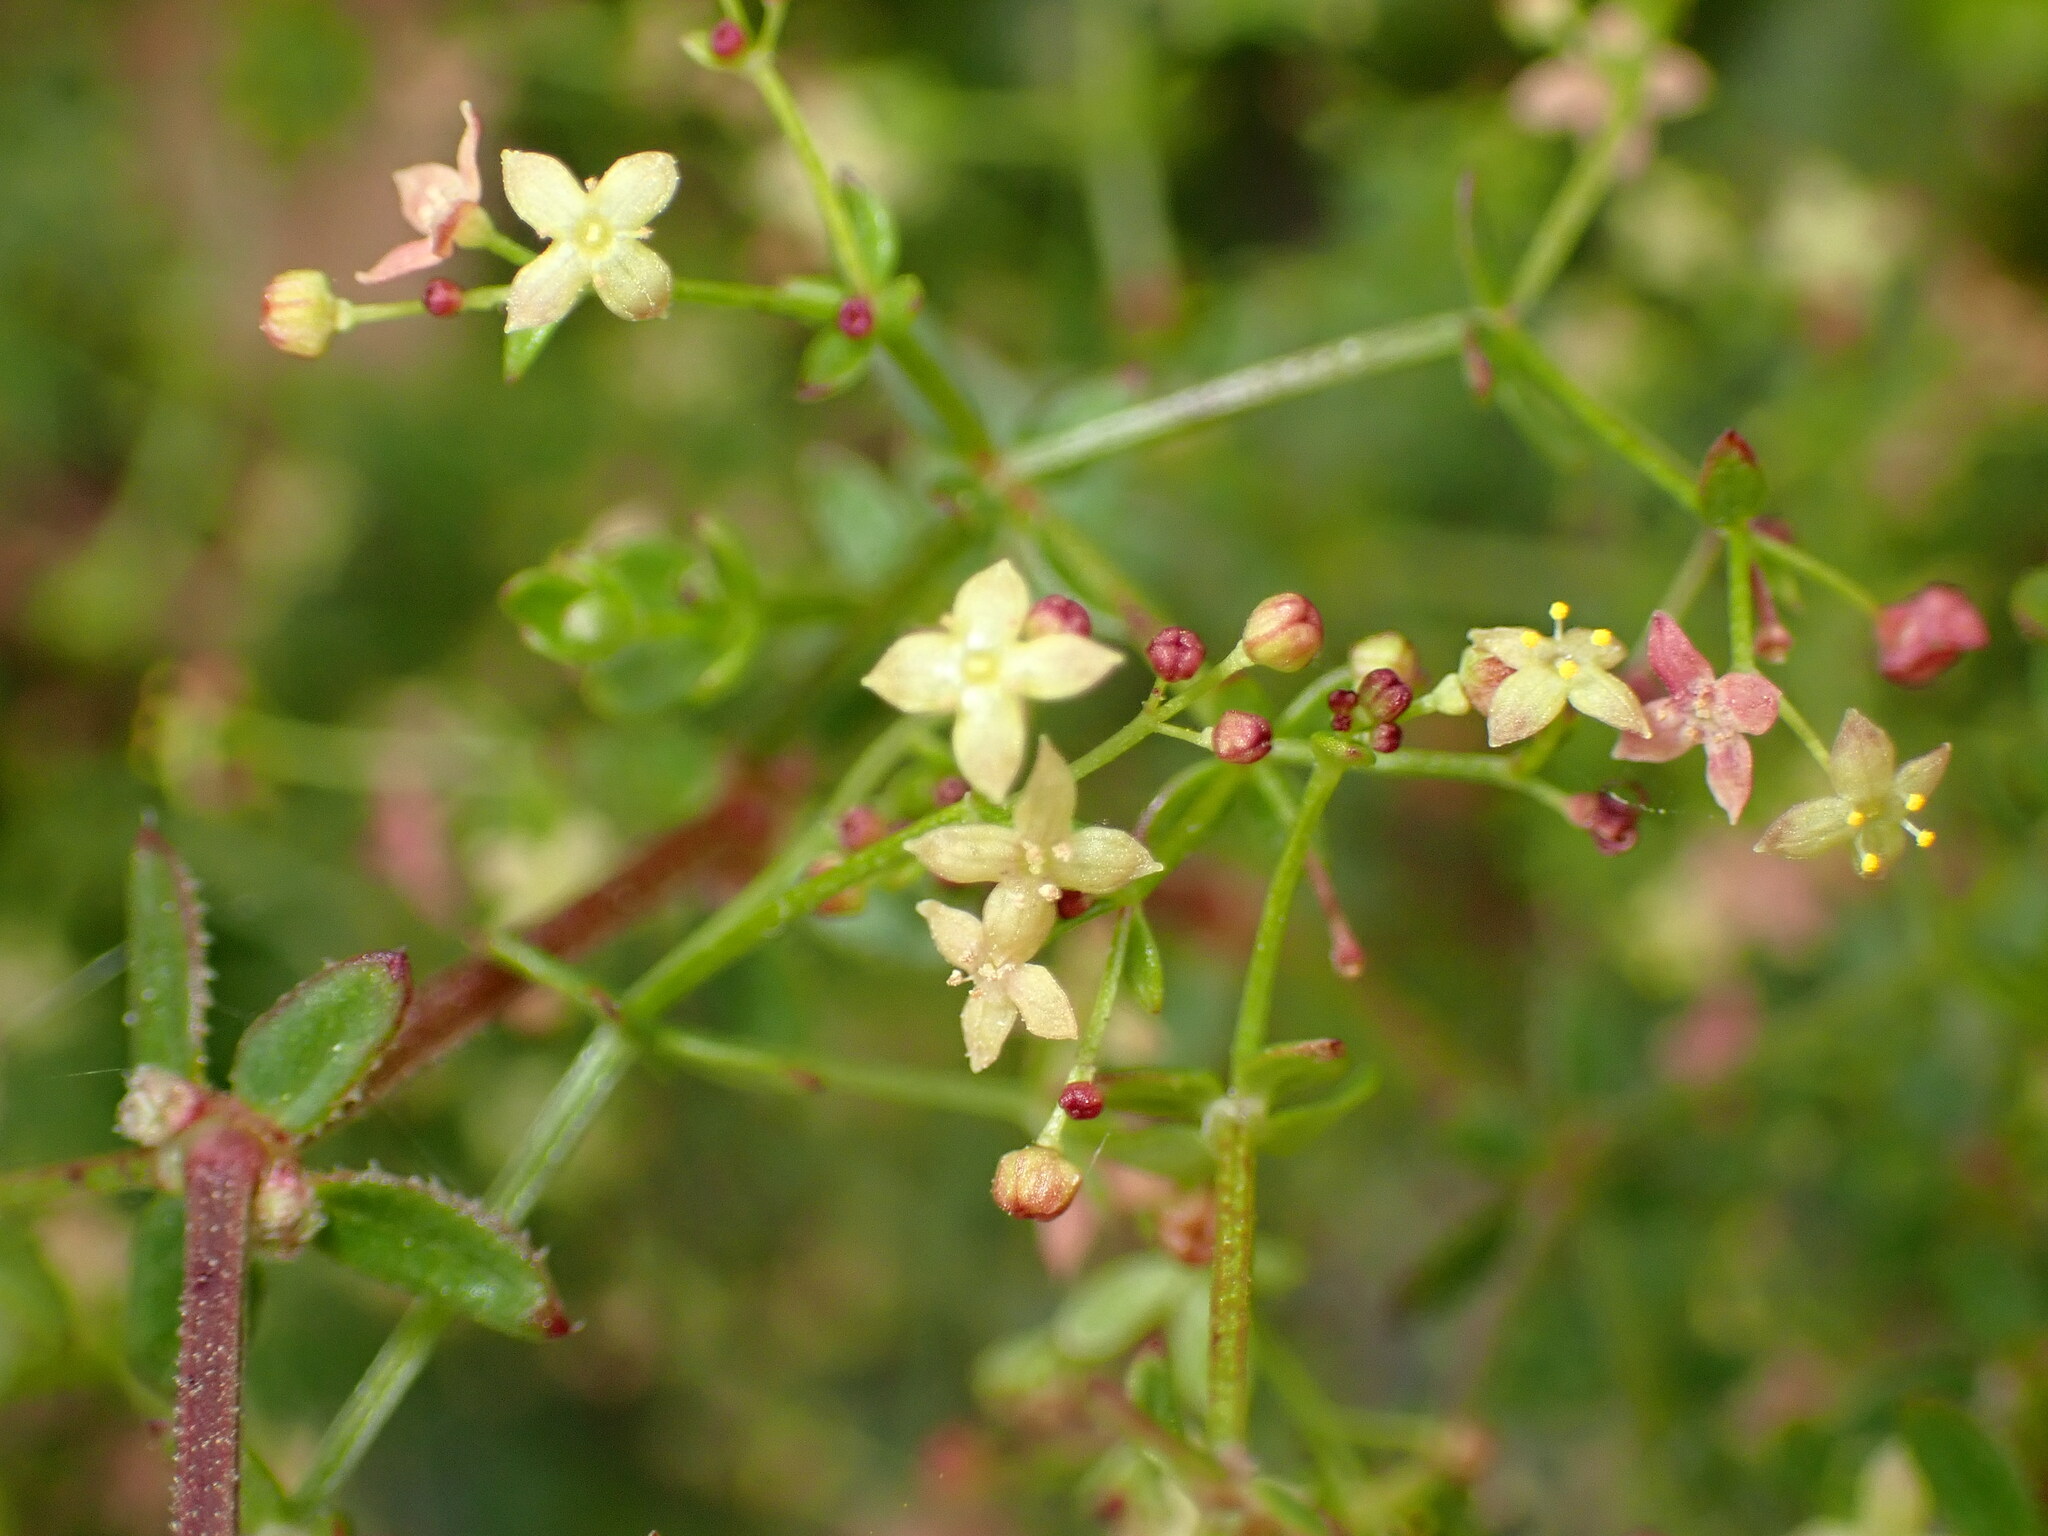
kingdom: Plantae
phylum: Tracheophyta
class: Magnoliopsida
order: Gentianales
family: Rubiaceae
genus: Galium
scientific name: Galium porrigens
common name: Climbing bedstraw
